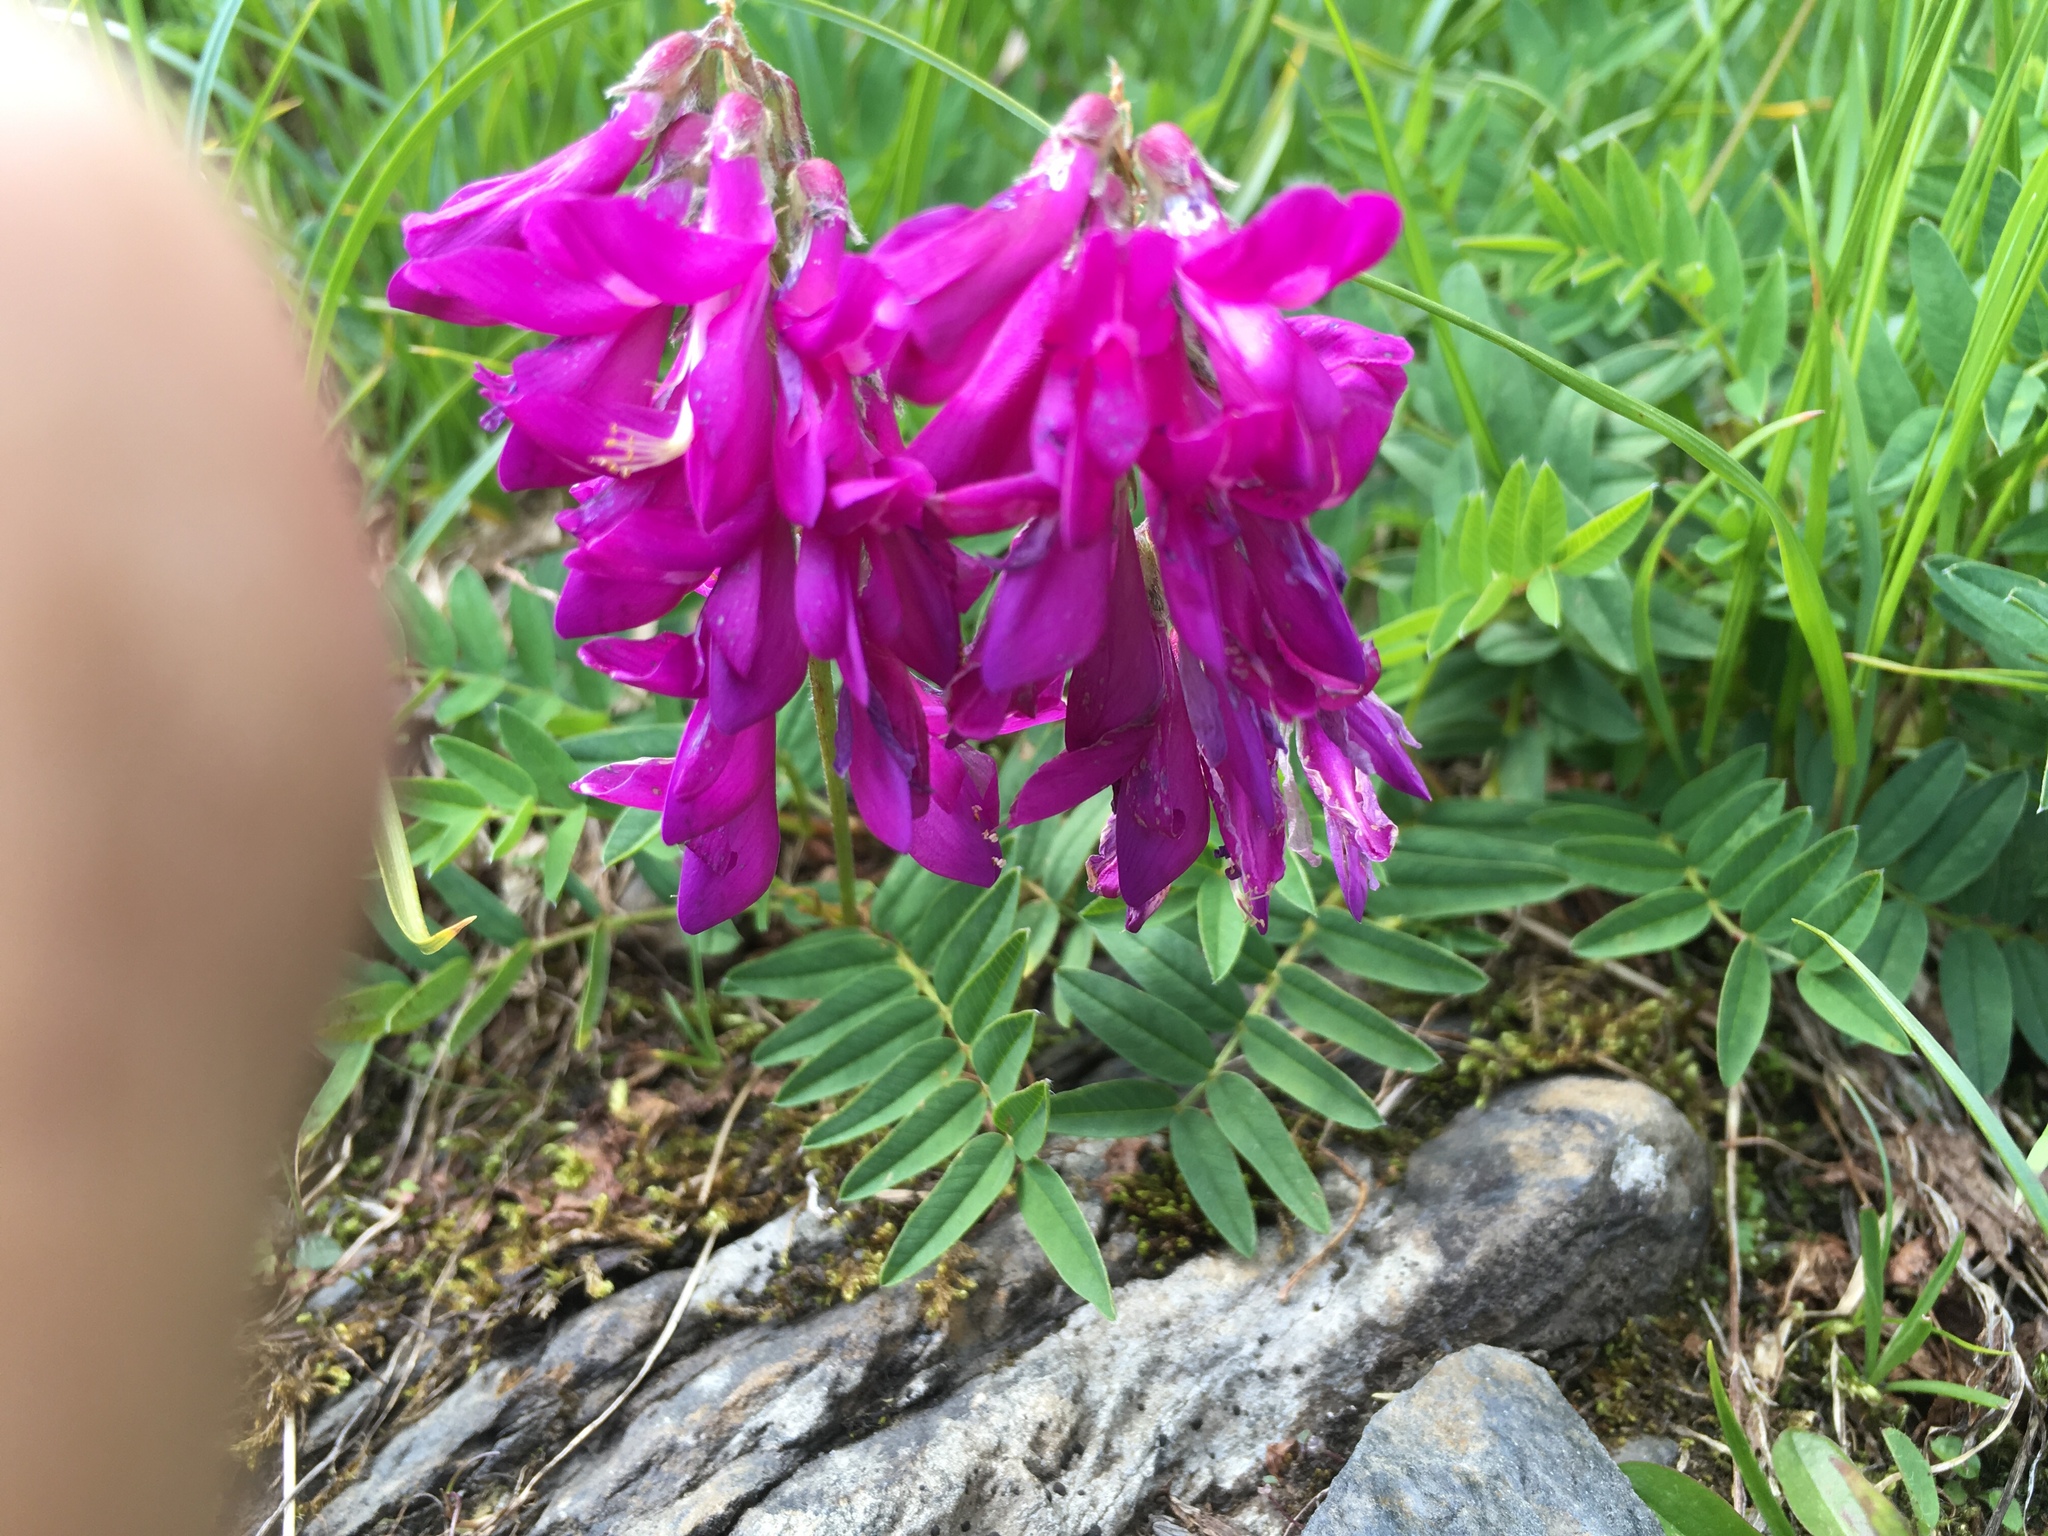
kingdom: Plantae
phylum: Tracheophyta
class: Magnoliopsida
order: Fabales
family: Fabaceae
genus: Hedysarum
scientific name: Hedysarum hedysaroides
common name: Alpine french-honeysuckle
